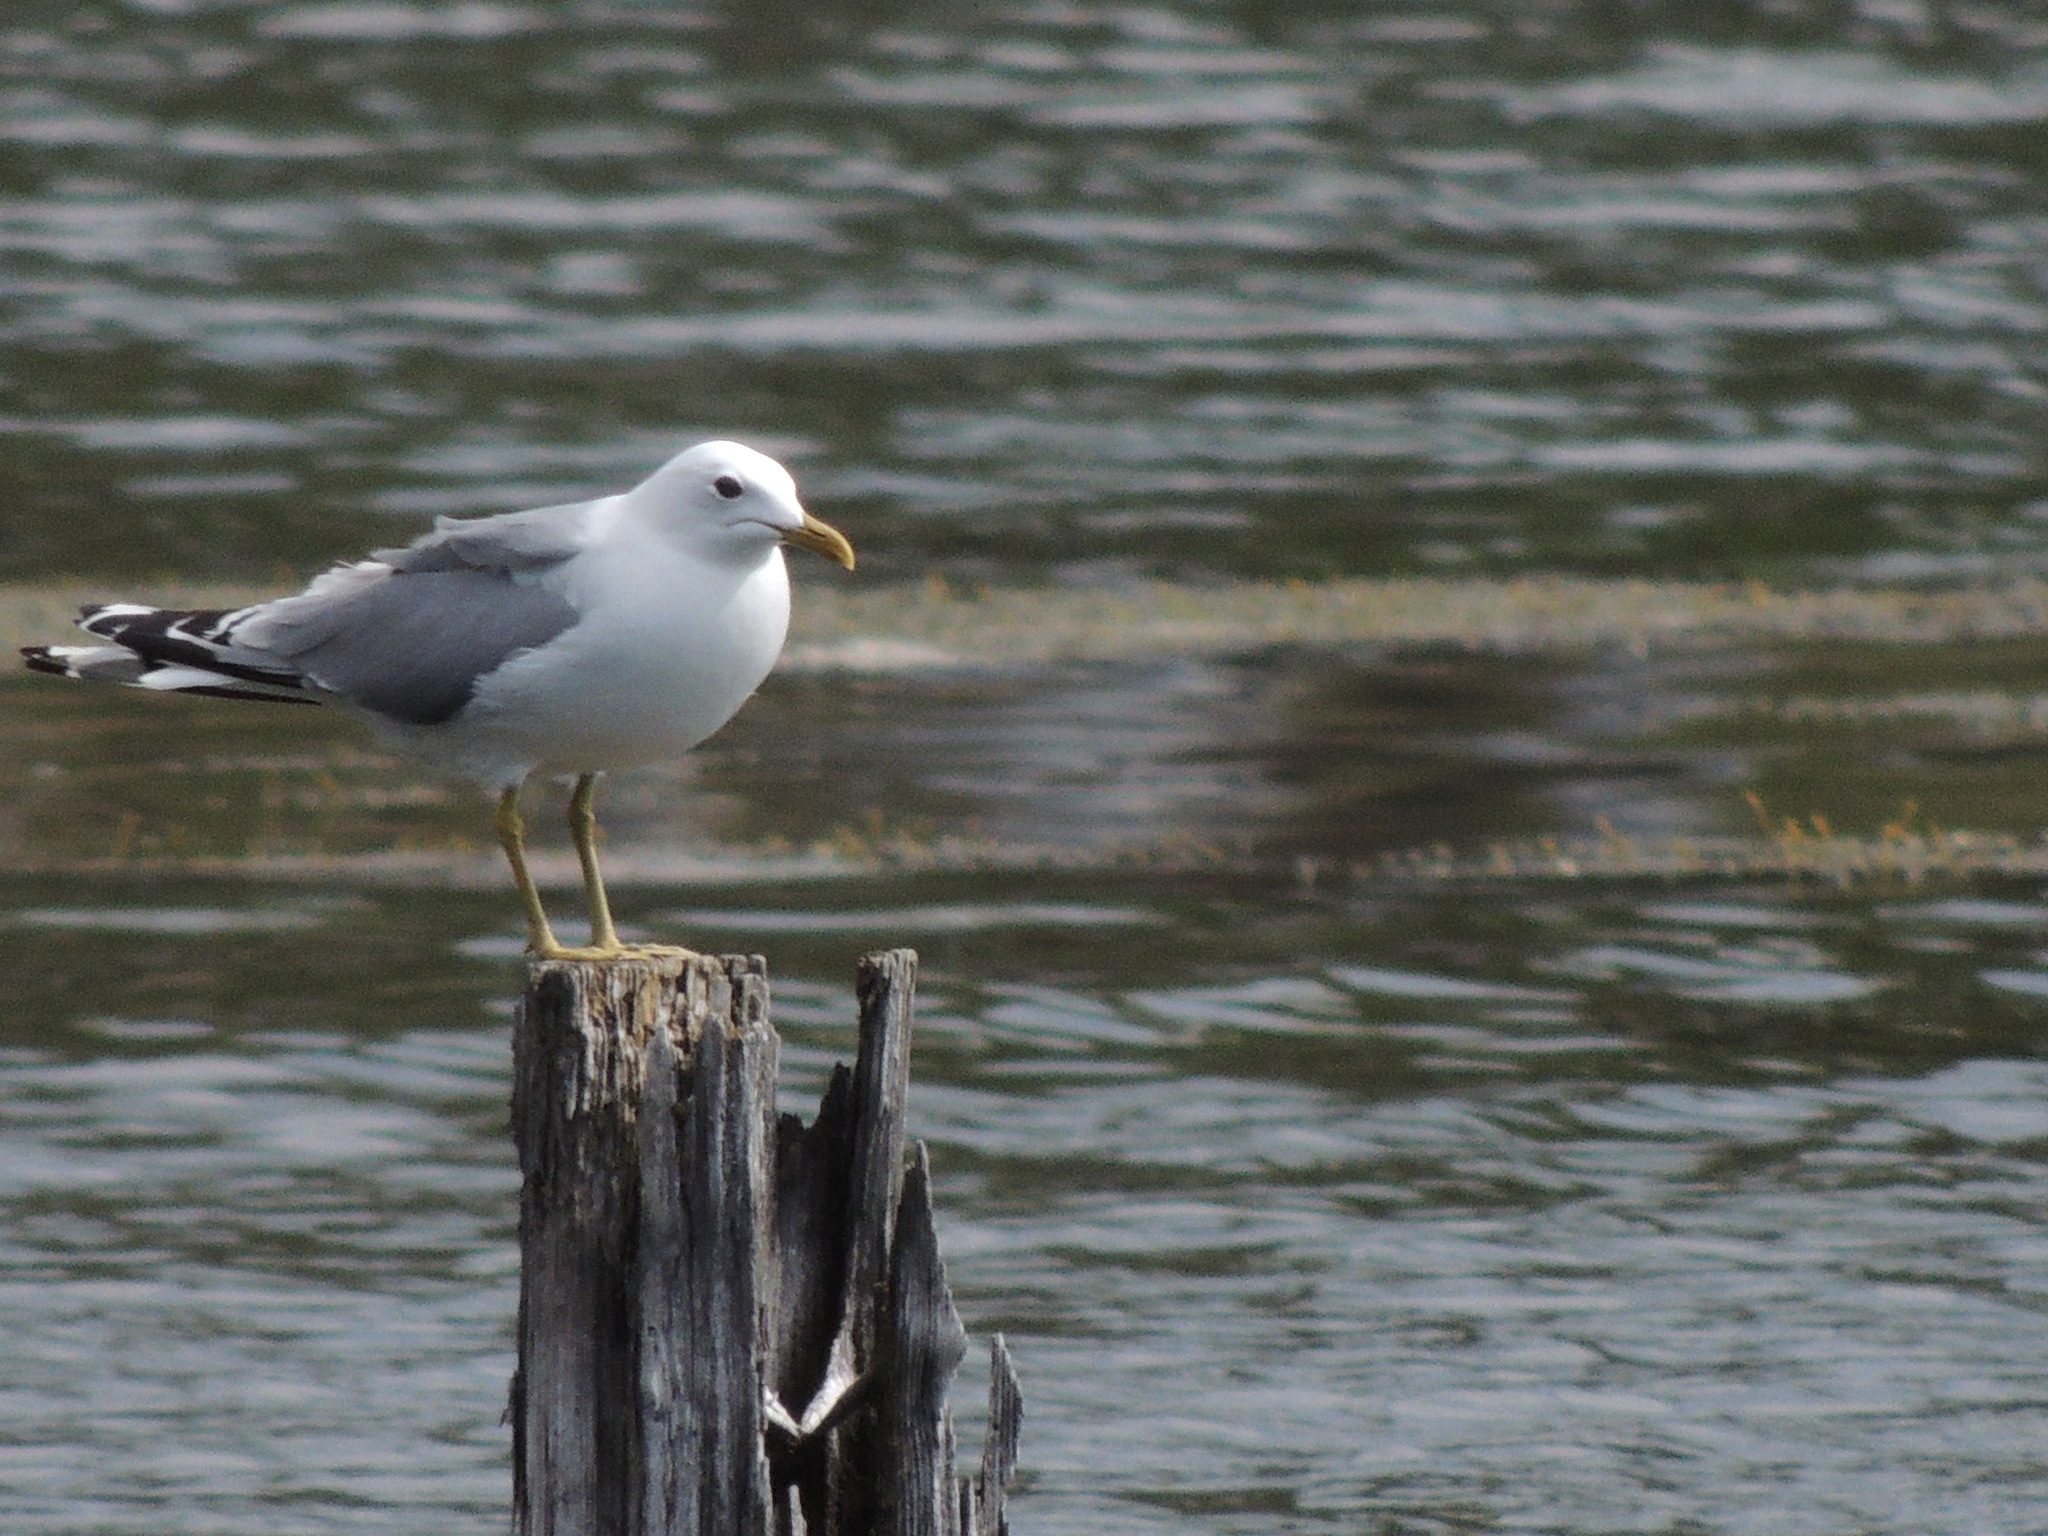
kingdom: Animalia
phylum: Chordata
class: Aves
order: Charadriiformes
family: Laridae
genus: Larus
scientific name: Larus canus
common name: Mew gull
